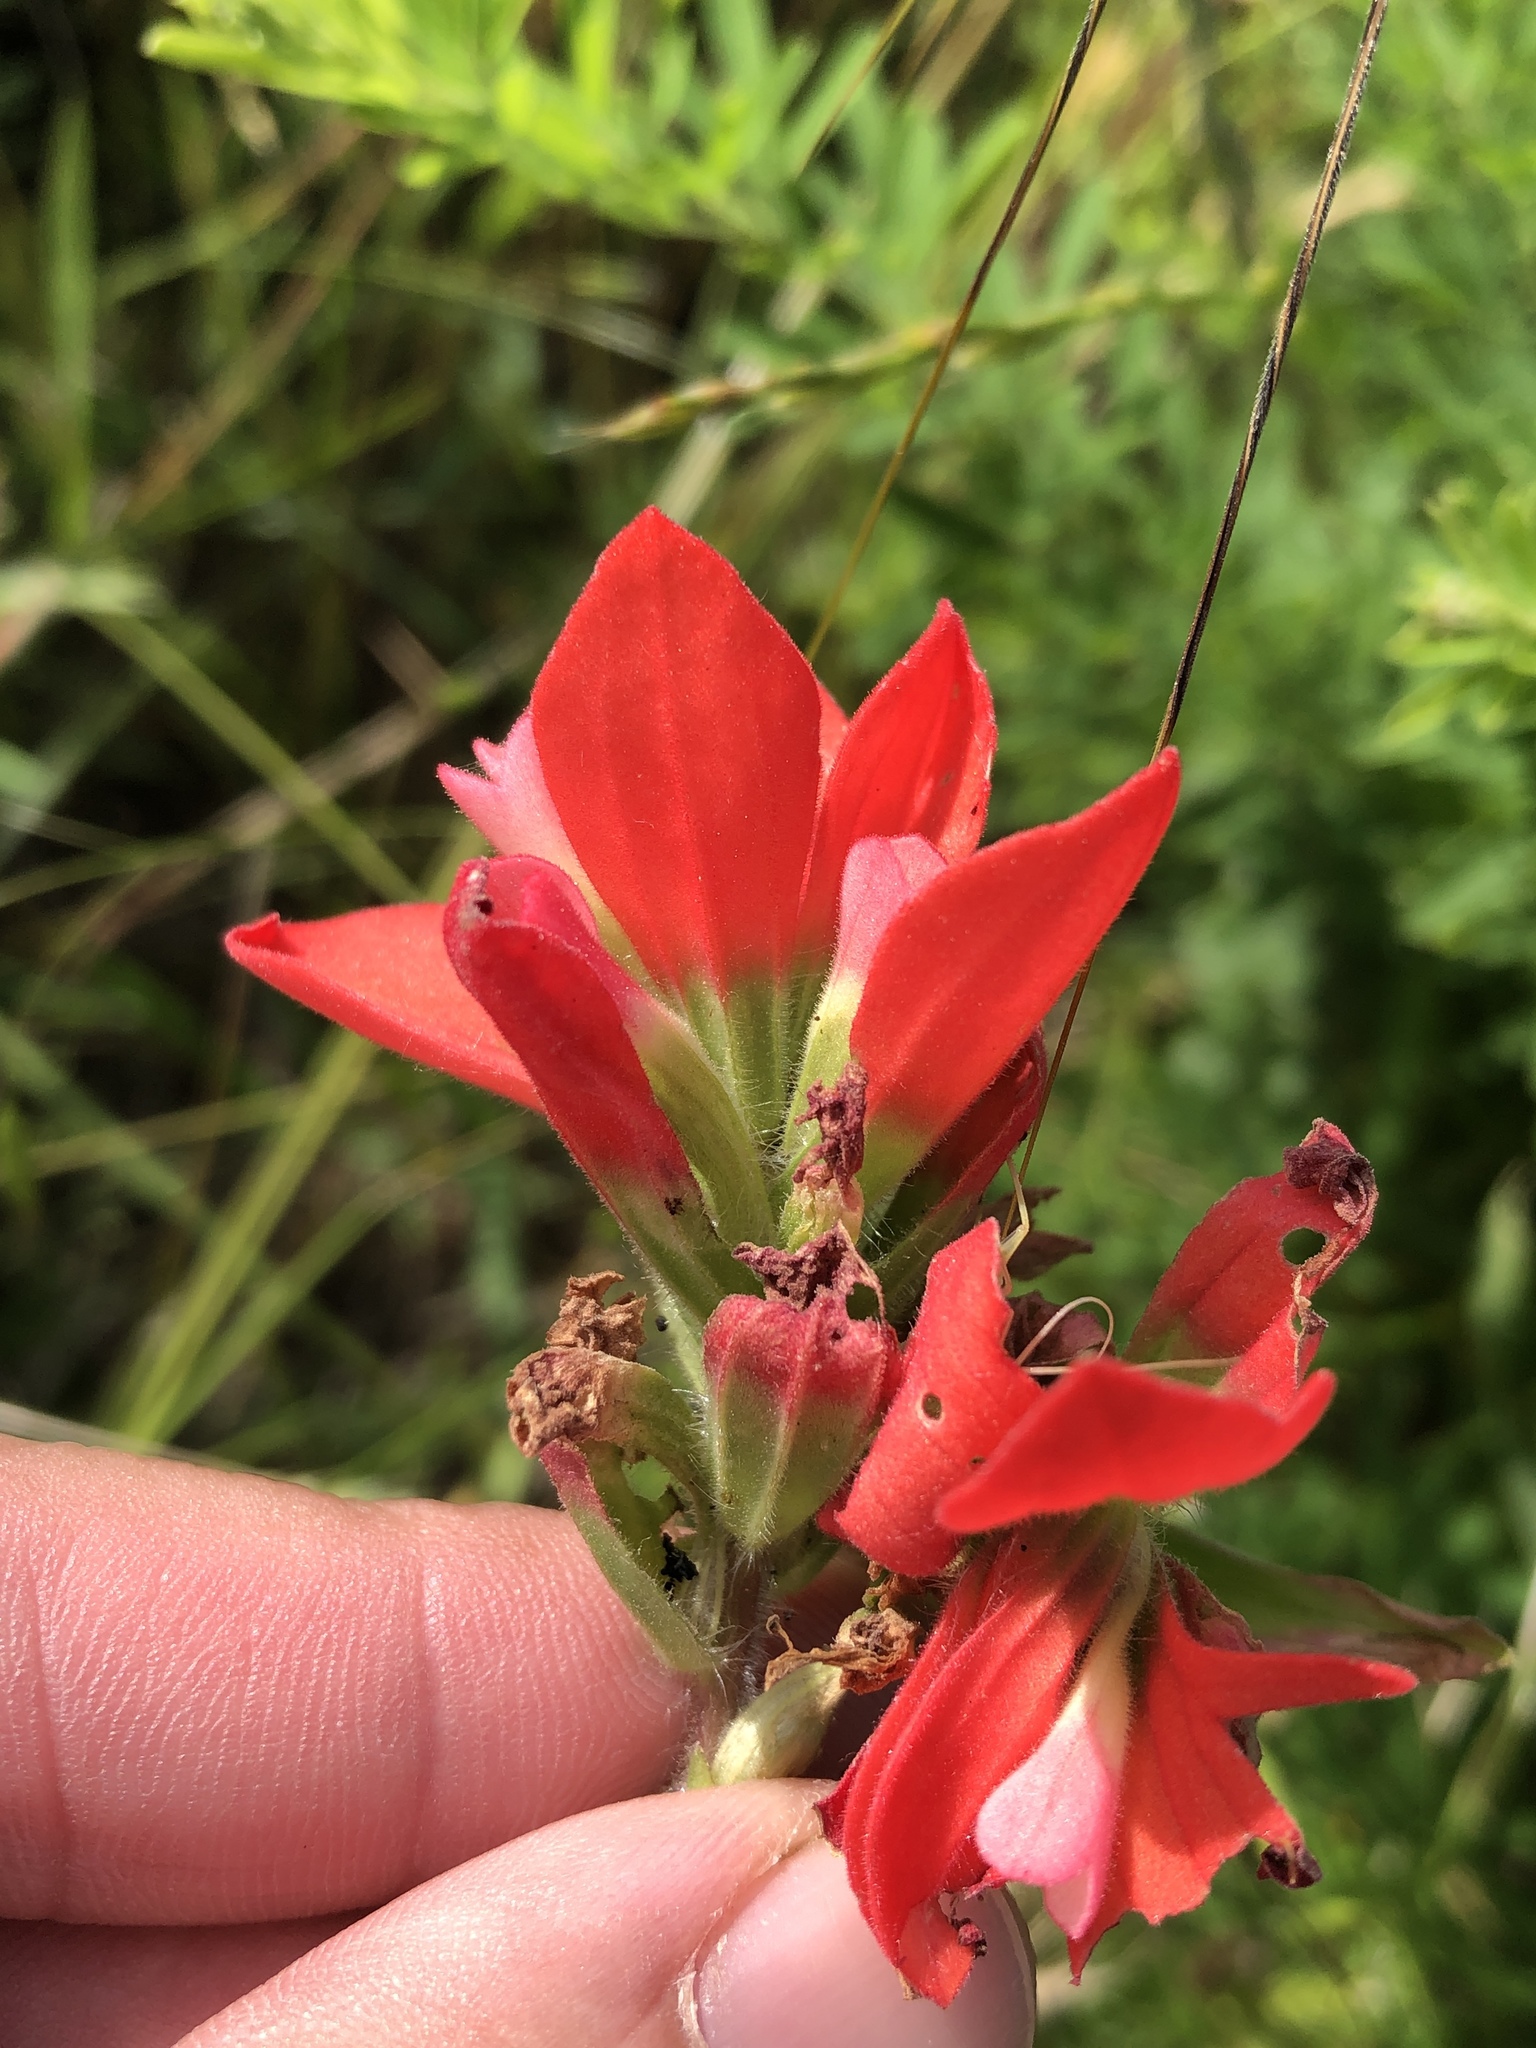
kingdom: Plantae
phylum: Tracheophyta
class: Magnoliopsida
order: Lamiales
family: Orobanchaceae
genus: Castilleja
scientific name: Castilleja indivisa
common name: Texas paintbrush
